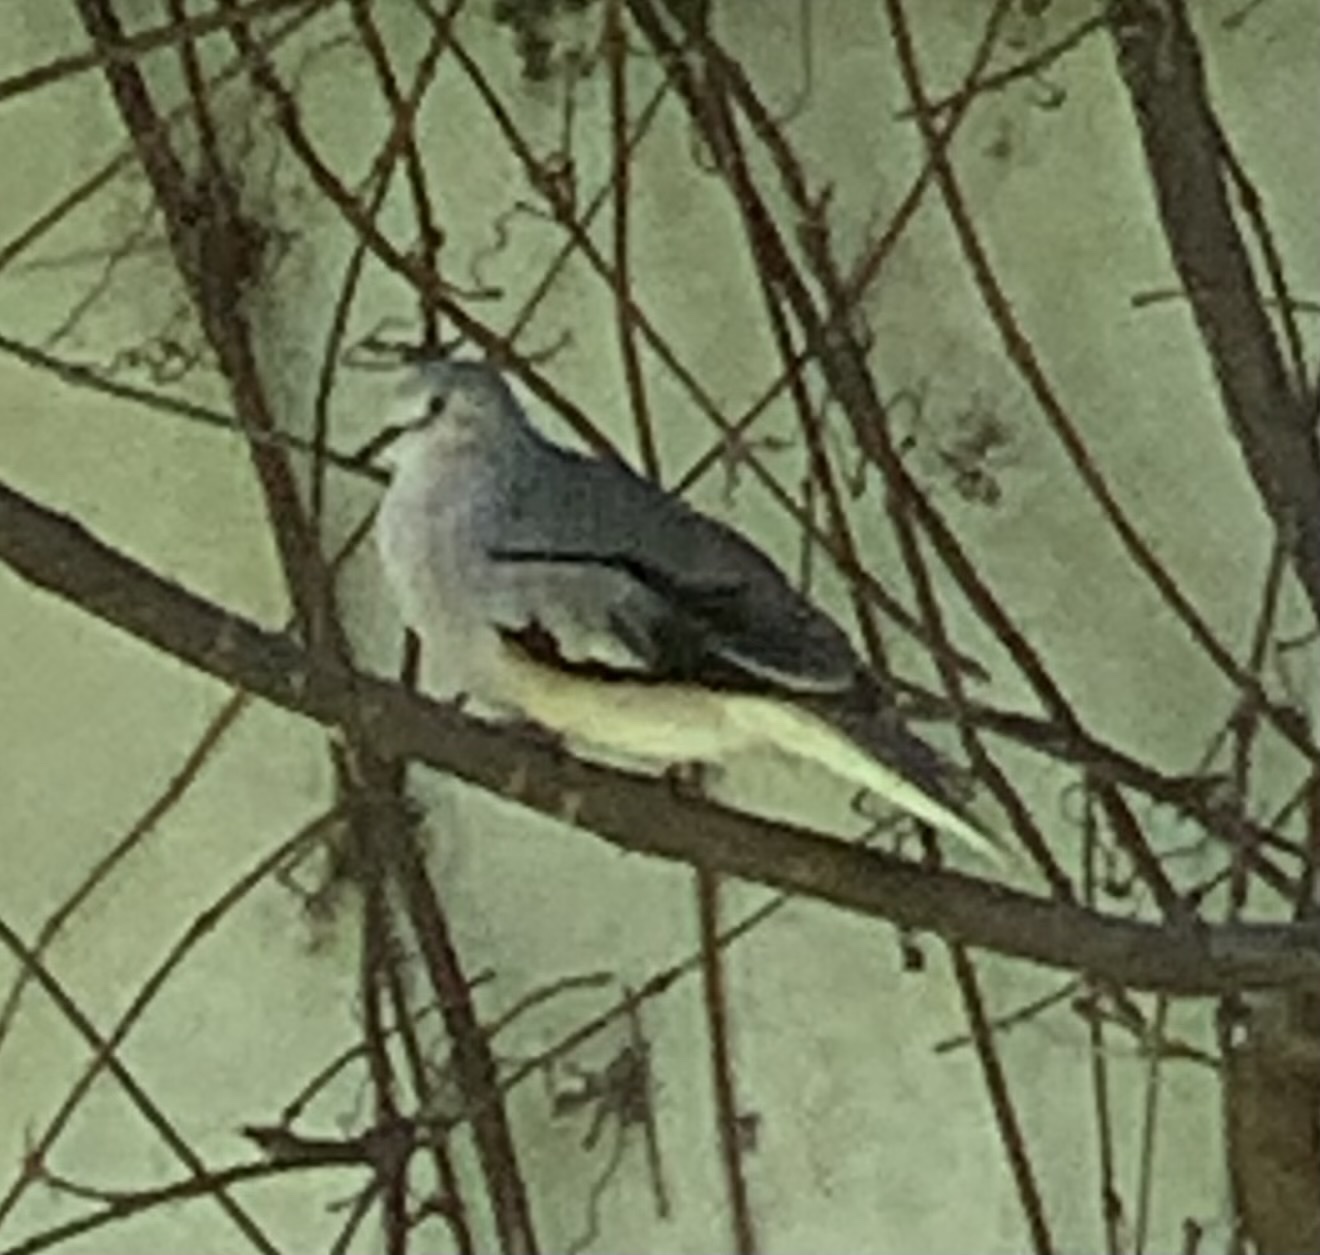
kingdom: Animalia
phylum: Chordata
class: Aves
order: Columbiformes
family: Columbidae
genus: Columbina
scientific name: Columbina picui
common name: Picui ground dove
